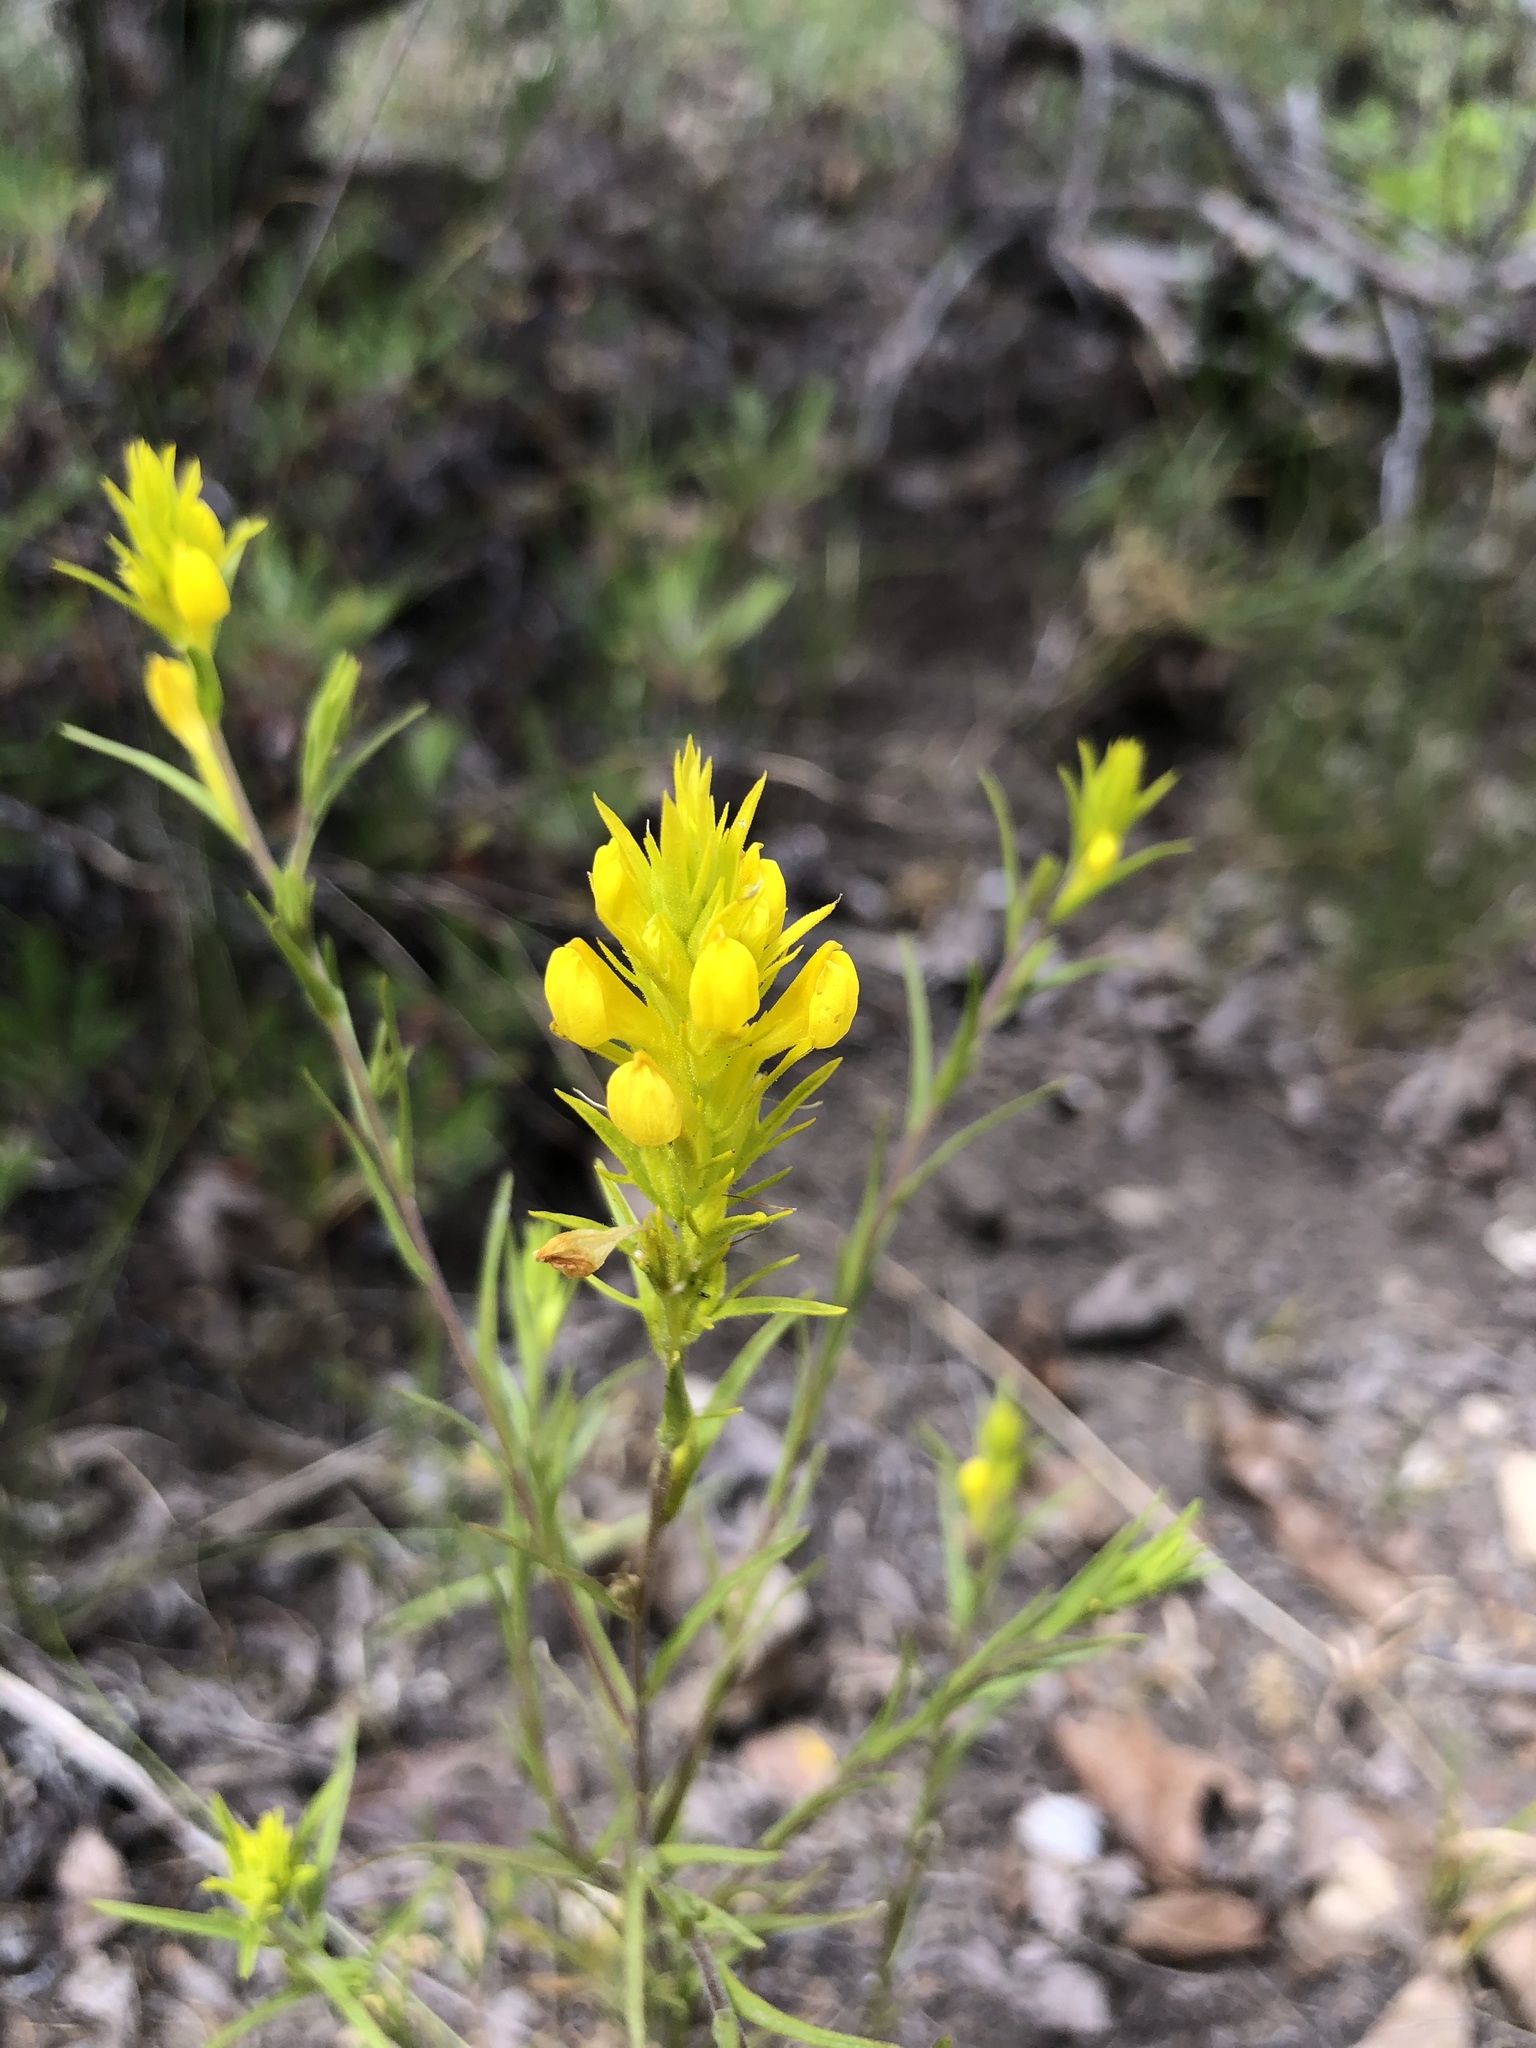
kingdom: Plantae
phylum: Tracheophyta
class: Magnoliopsida
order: Lamiales
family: Orobanchaceae
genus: Orthocarpus
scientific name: Orthocarpus tolmiei
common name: Tolmie's owl-clover
